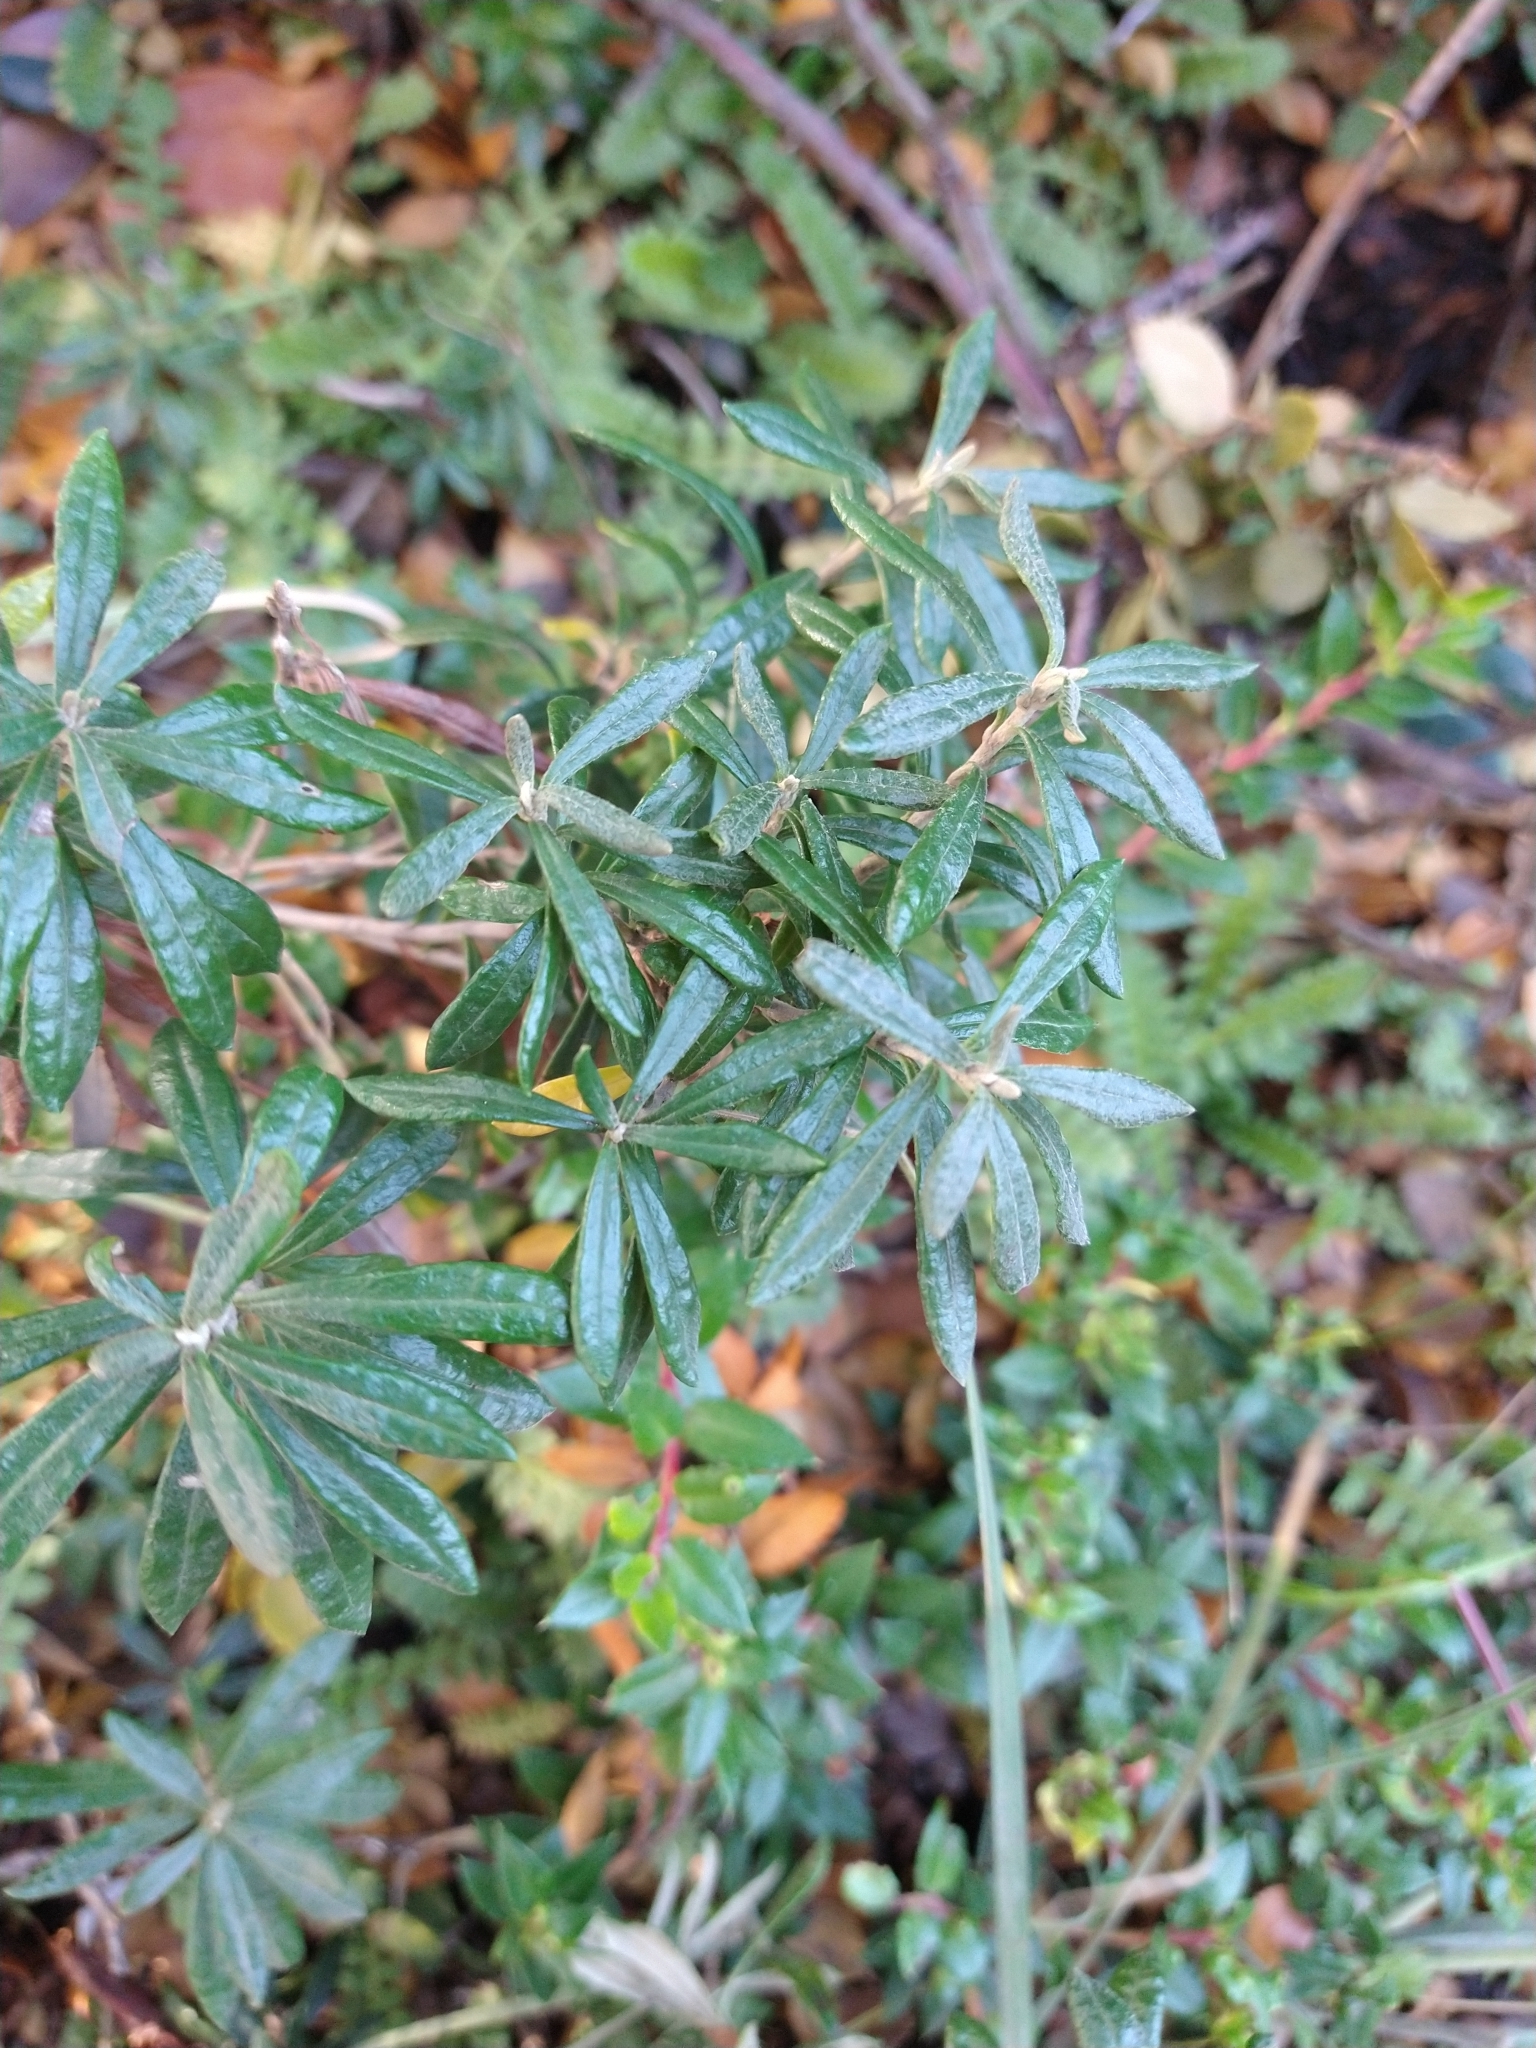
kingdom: Plantae
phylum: Tracheophyta
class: Magnoliopsida
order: Asterales
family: Asteraceae
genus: Chiliotrichum
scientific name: Chiliotrichum diffusum
